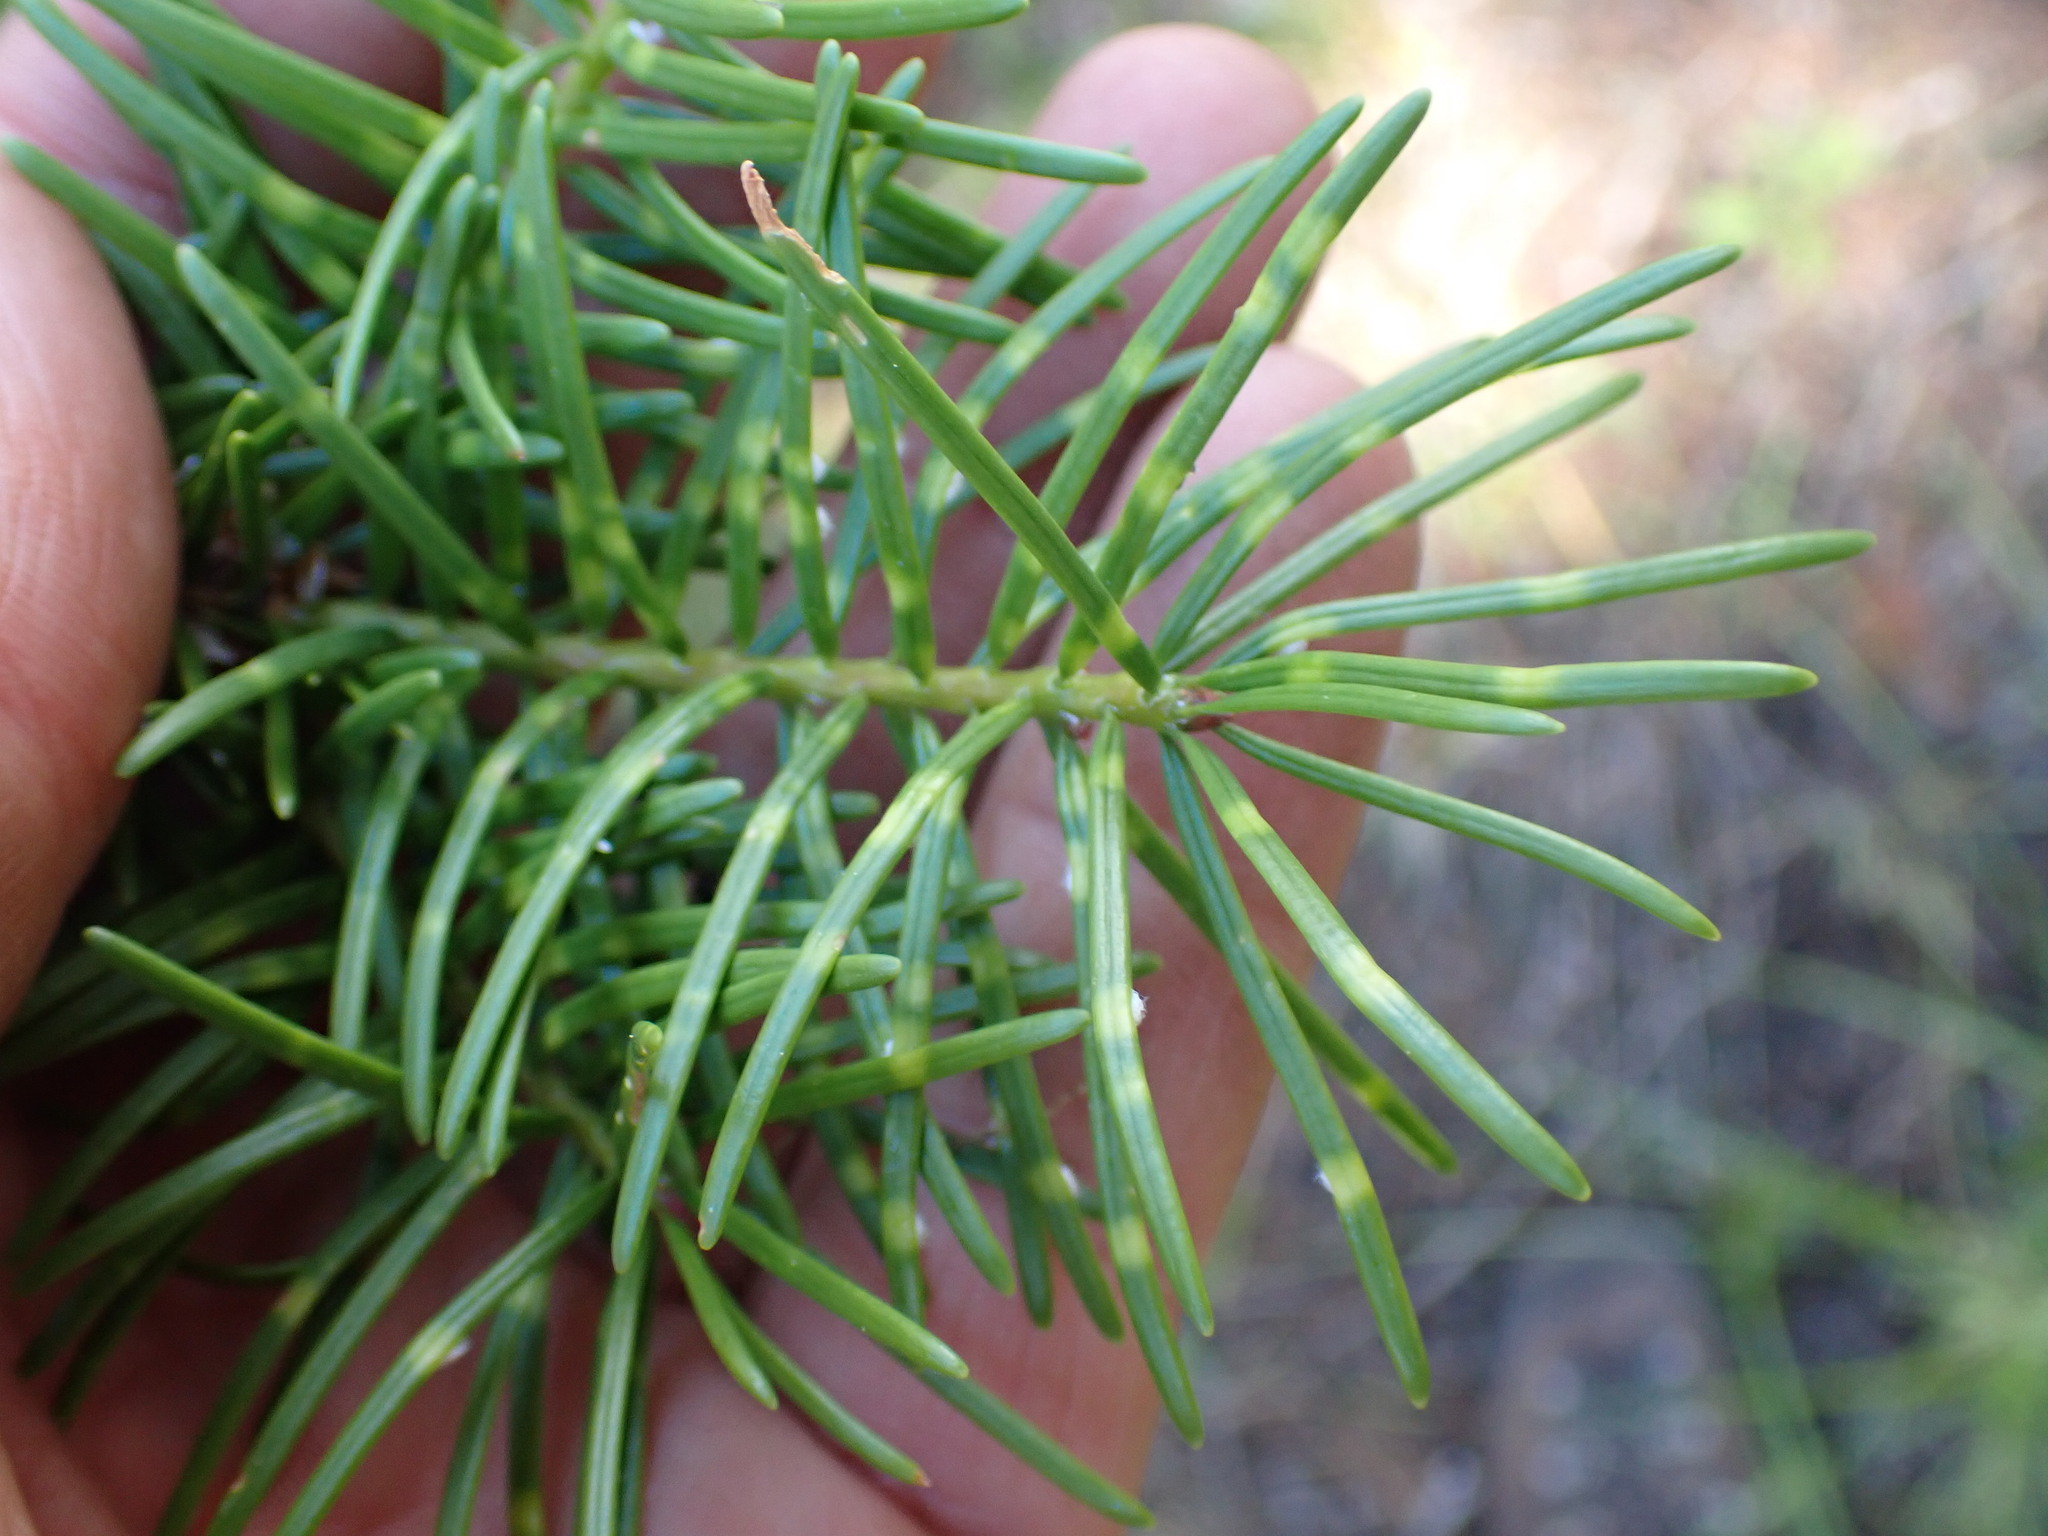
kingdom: Plantae
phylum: Tracheophyta
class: Pinopsida
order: Pinales
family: Pinaceae
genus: Pseudotsuga
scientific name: Pseudotsuga menziesii
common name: Douglas fir
